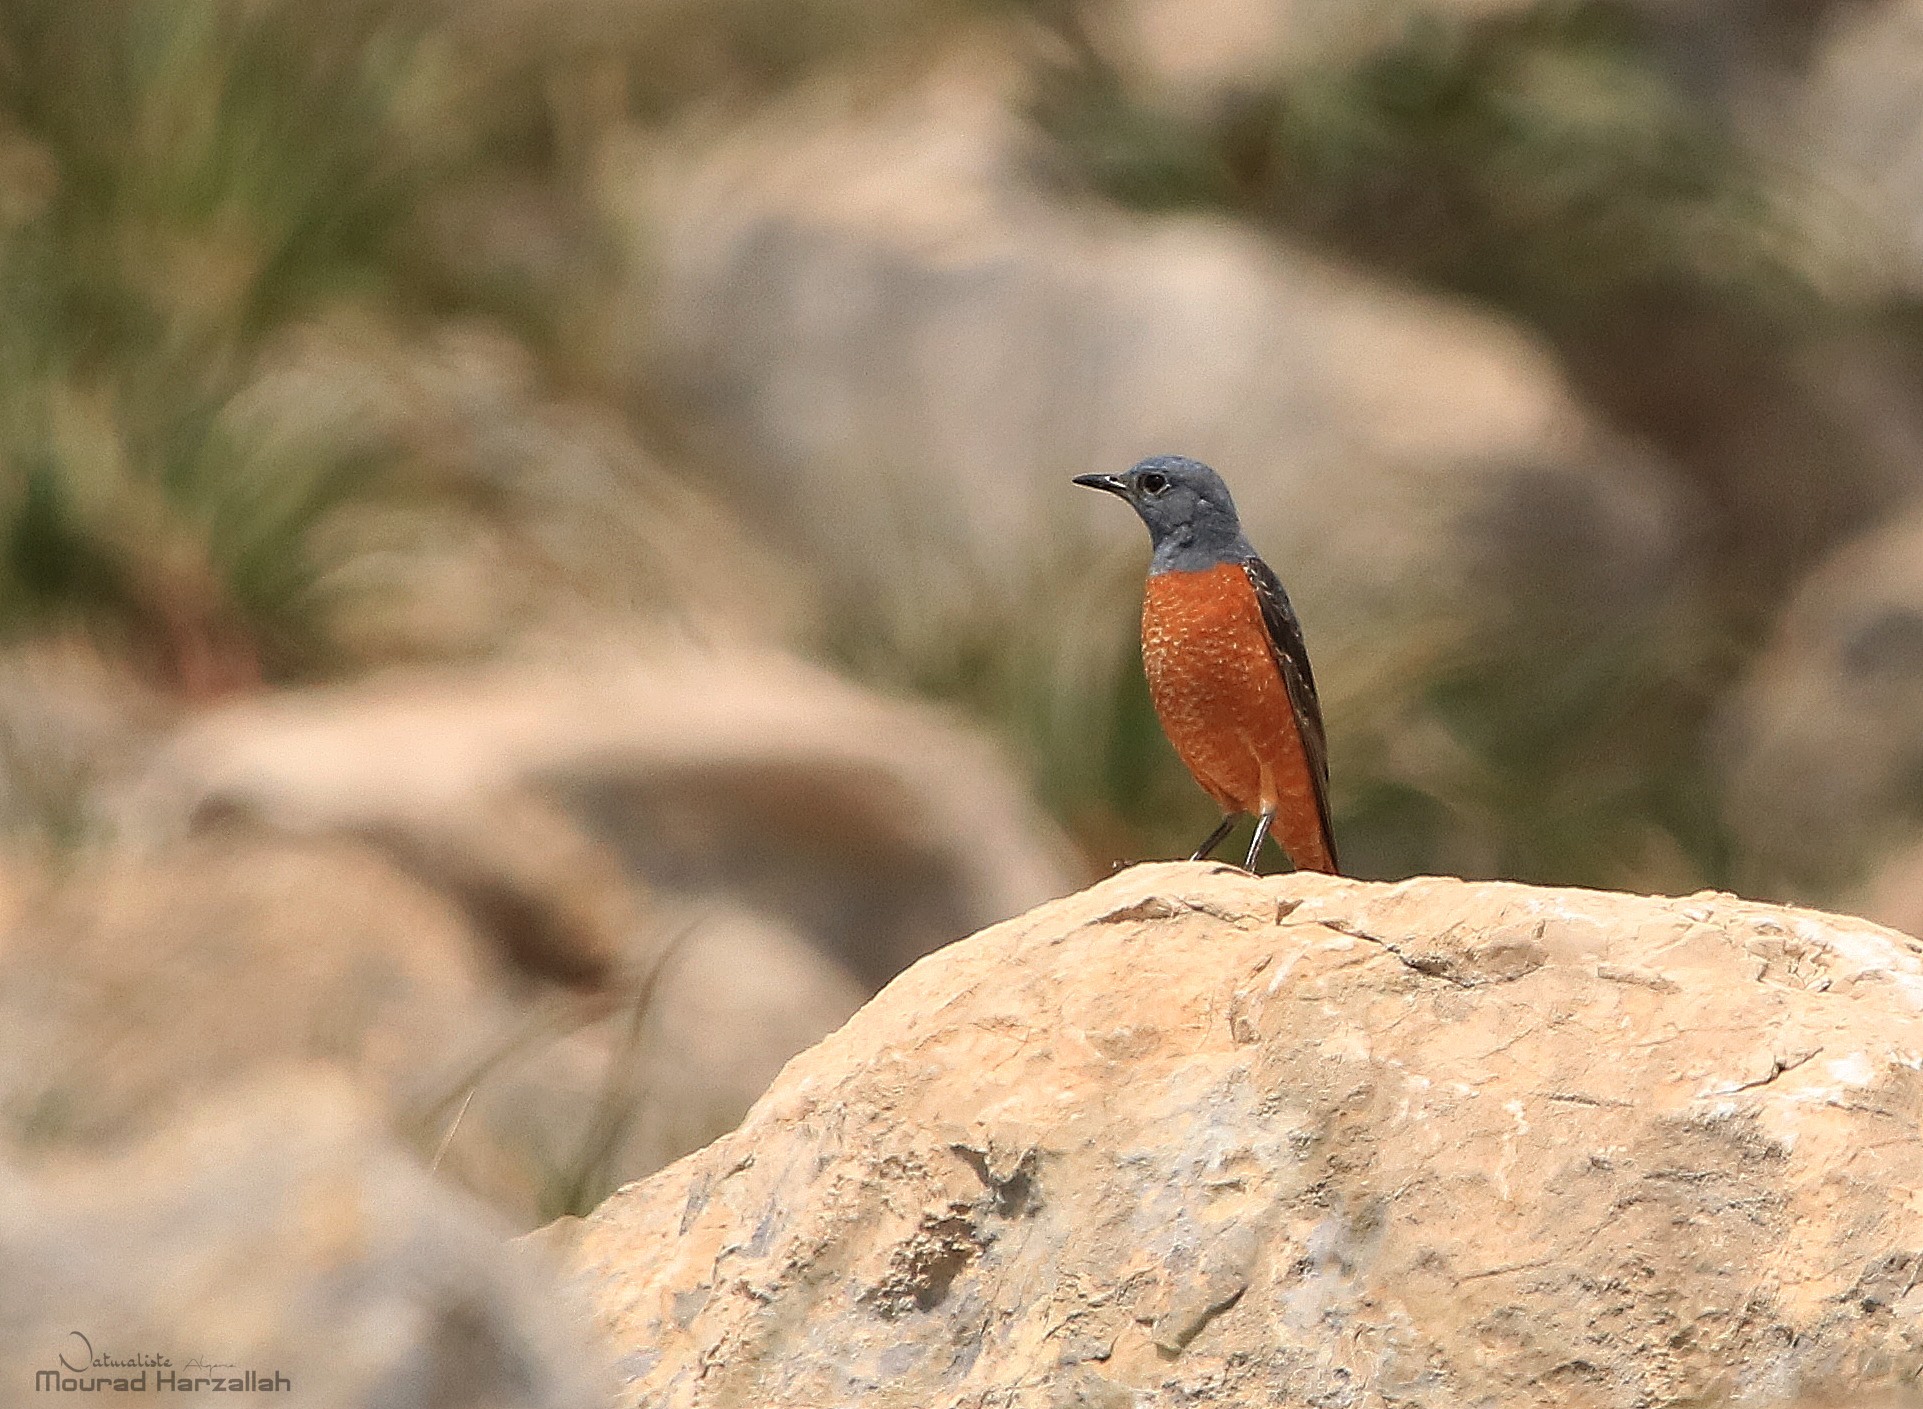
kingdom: Animalia
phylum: Chordata
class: Aves
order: Passeriformes
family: Muscicapidae
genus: Monticola
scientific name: Monticola saxatilis
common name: Rufous-tailed rock thrush
